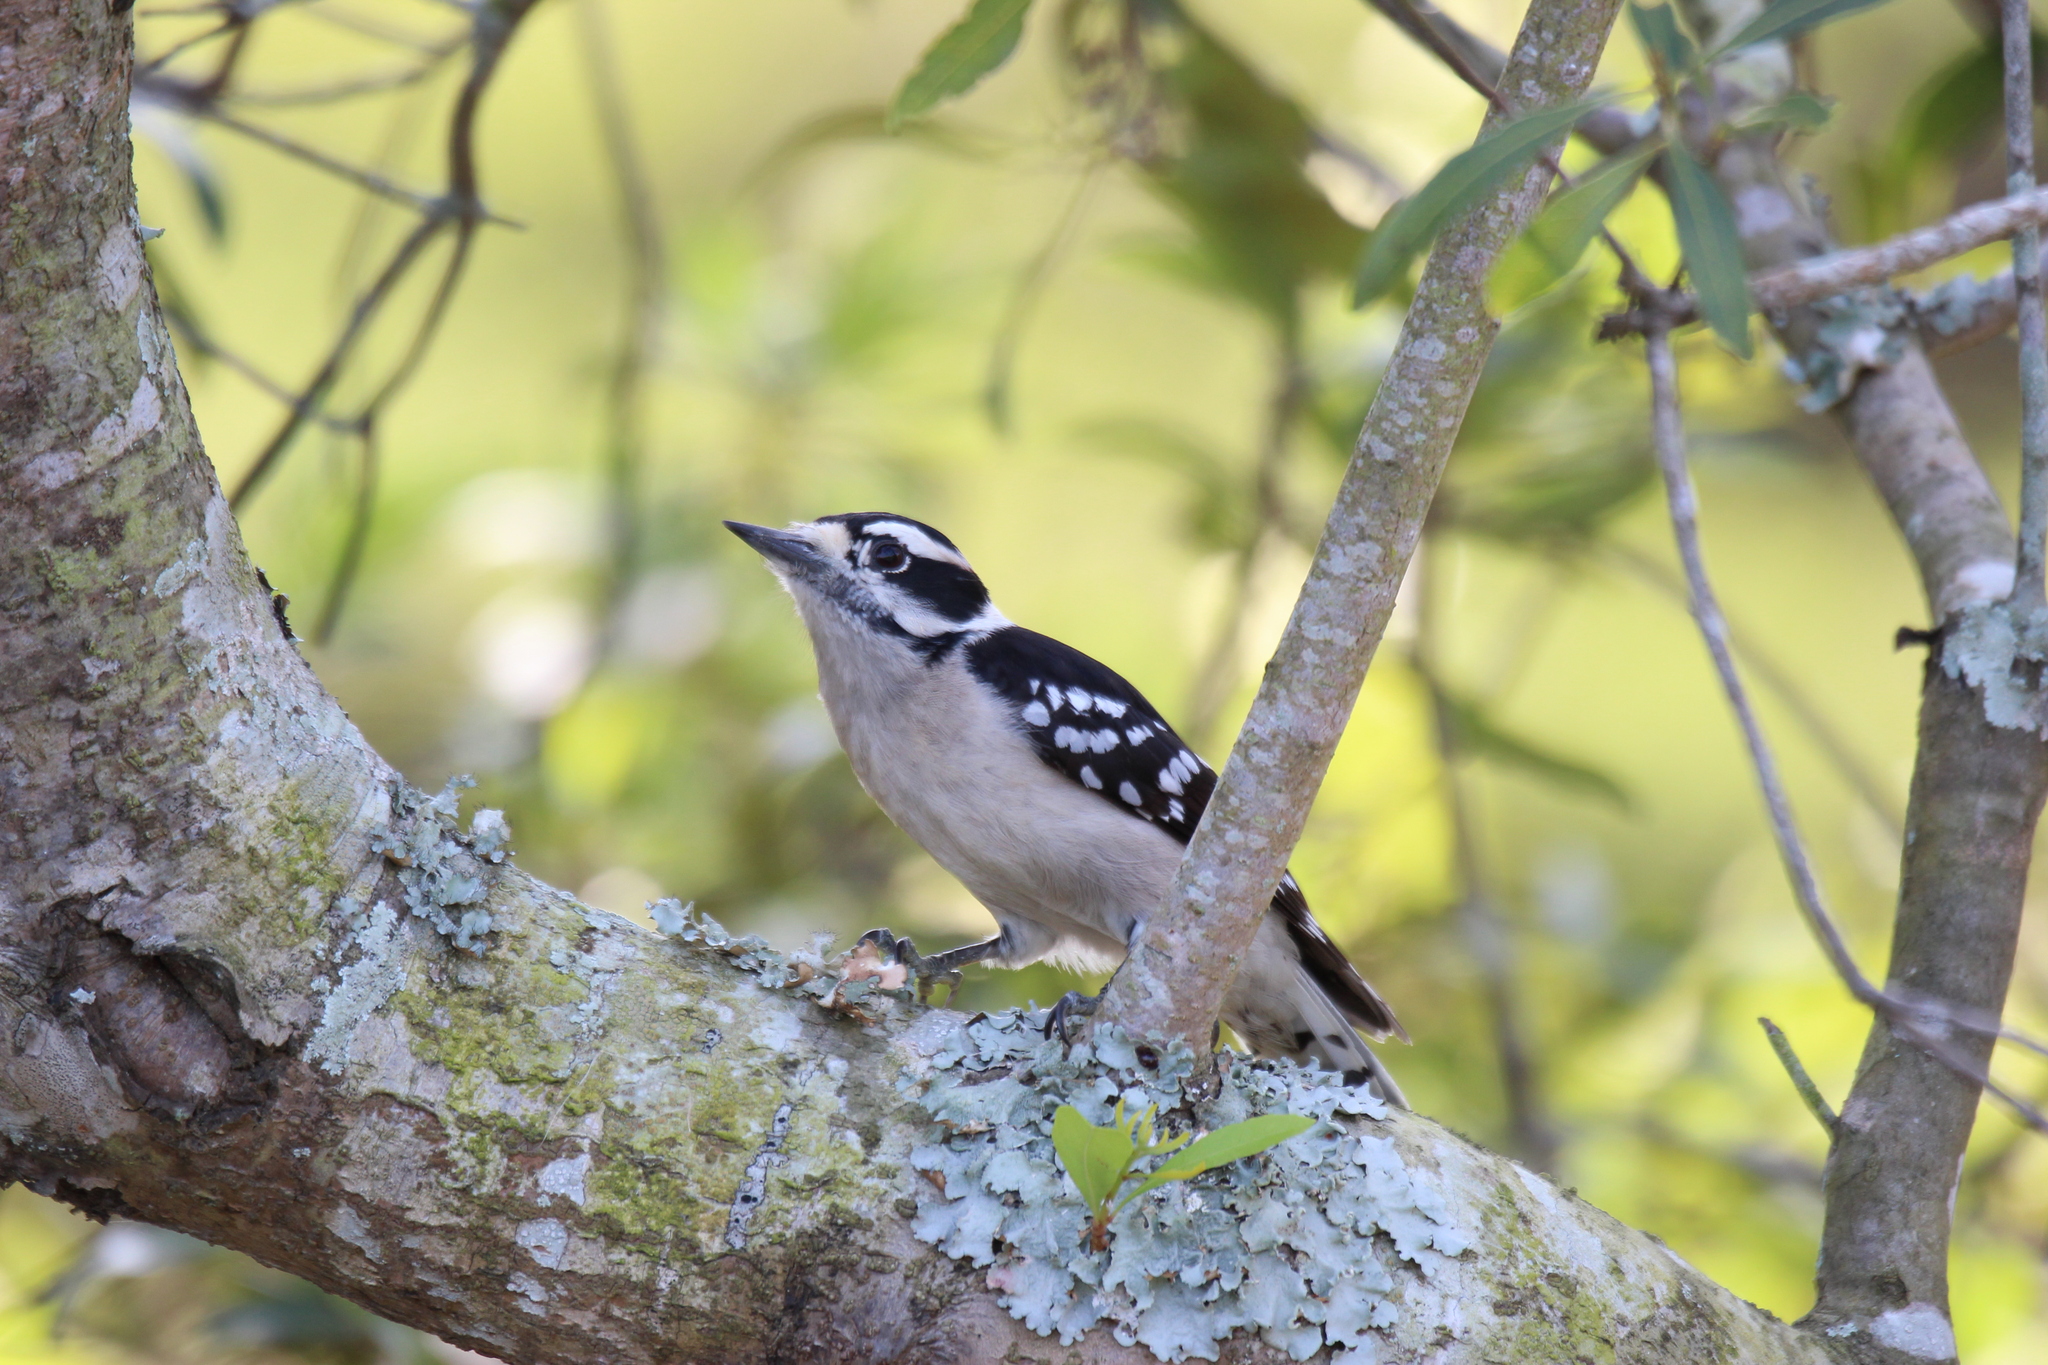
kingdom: Animalia
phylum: Chordata
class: Aves
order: Piciformes
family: Picidae
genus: Dryobates
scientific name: Dryobates pubescens
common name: Downy woodpecker
